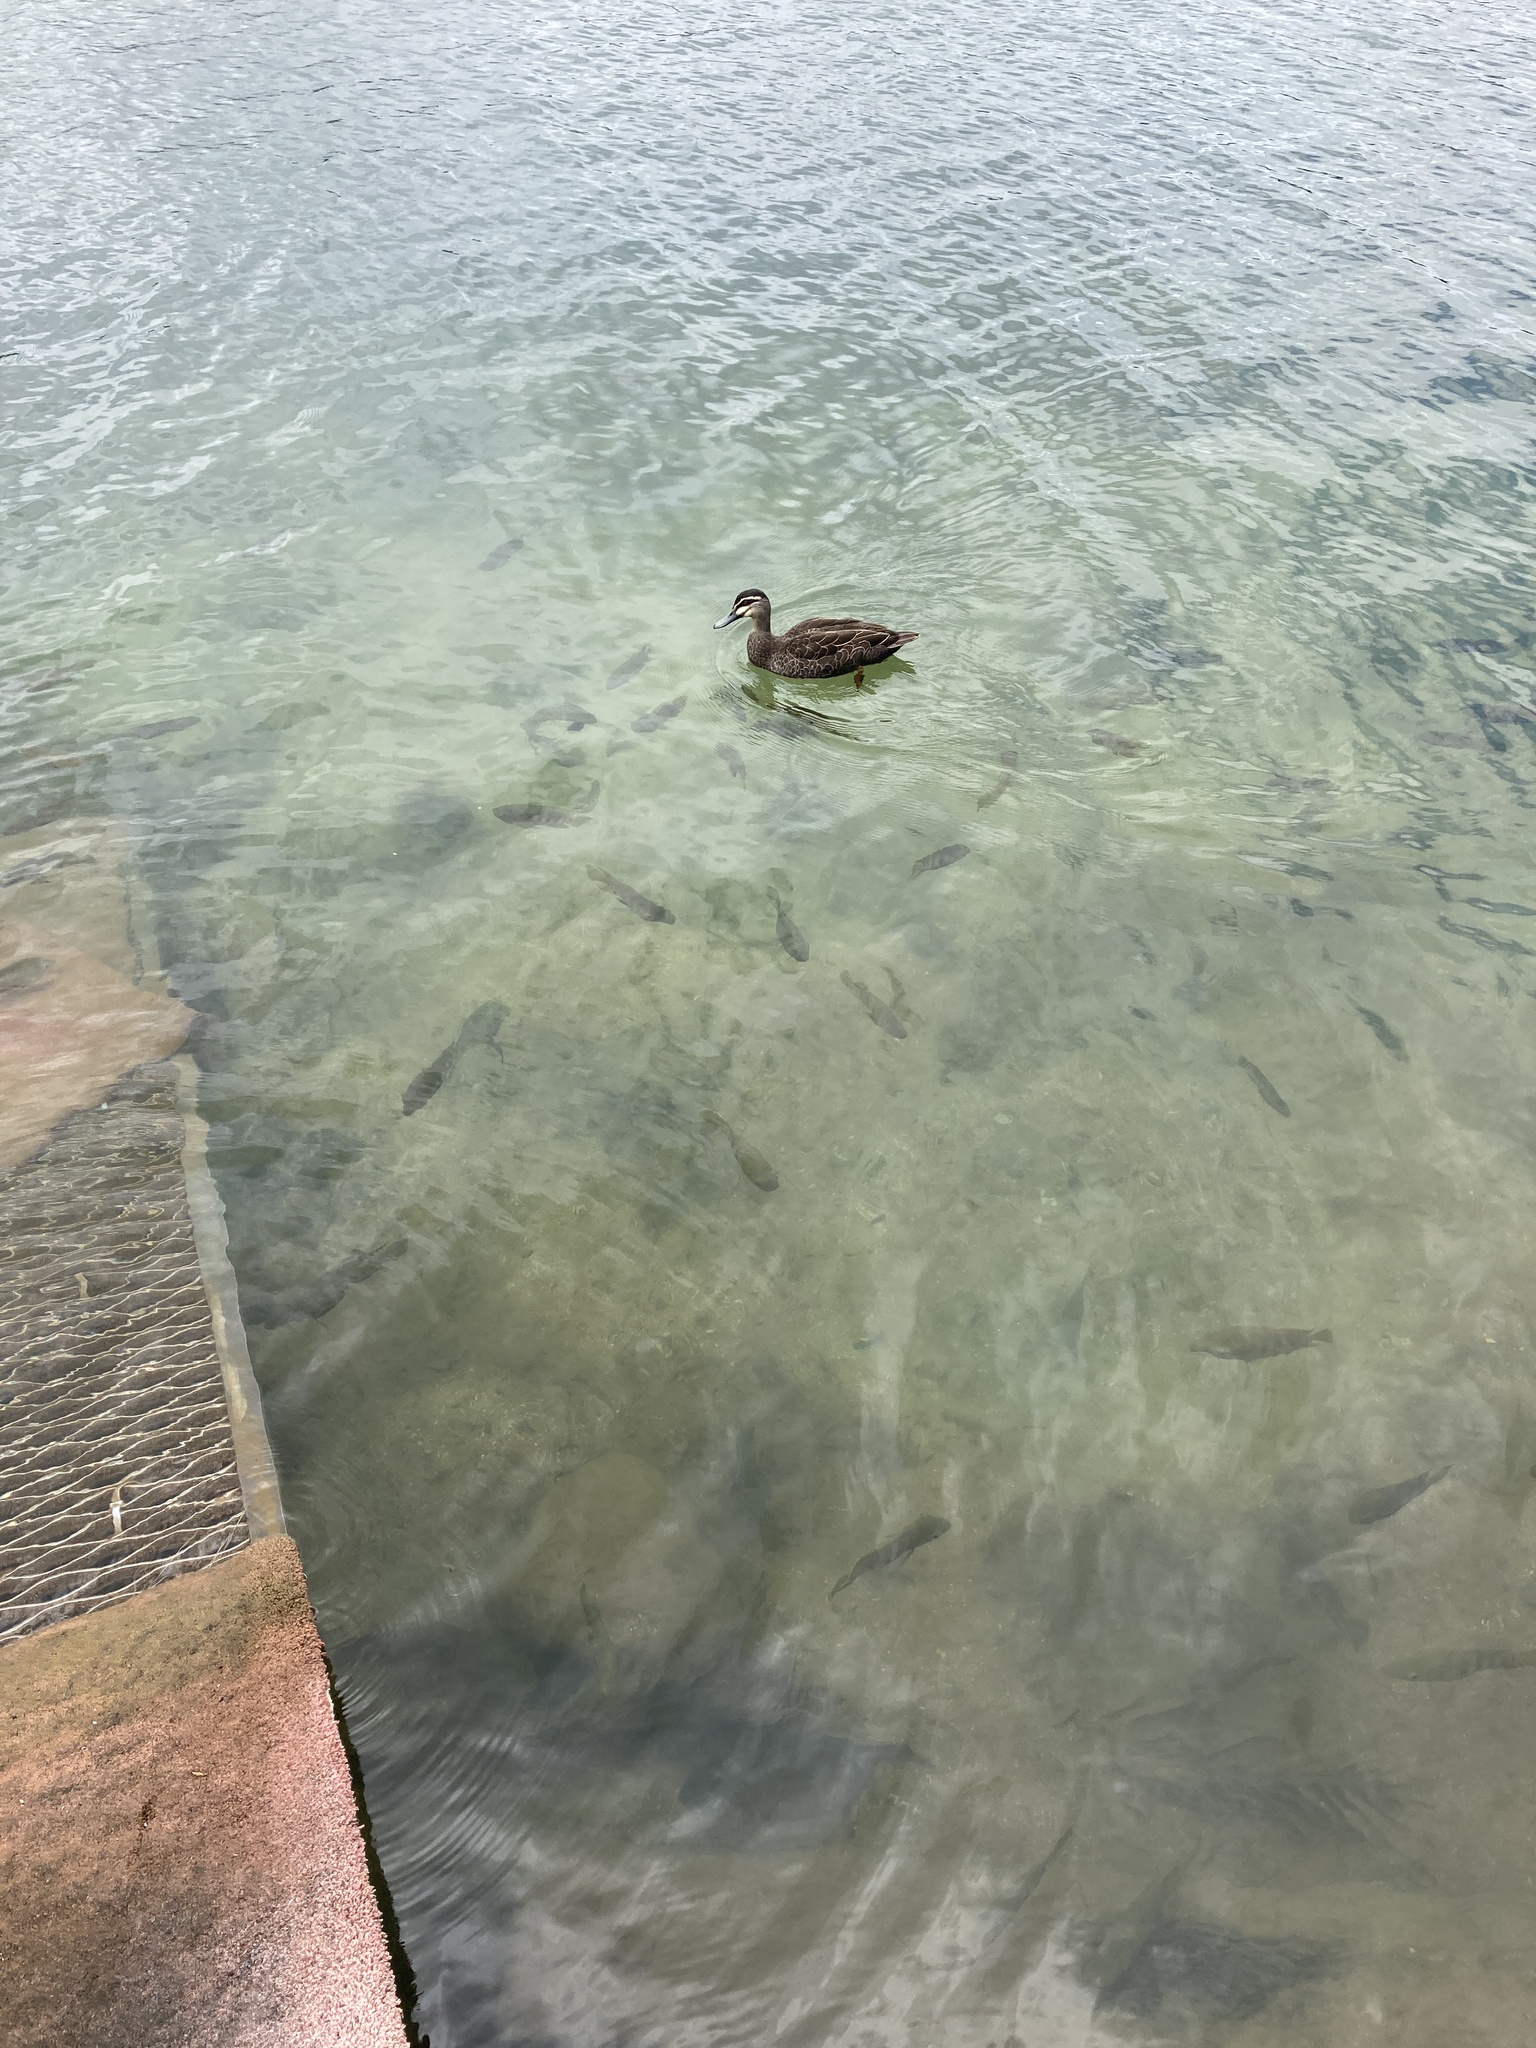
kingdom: Animalia
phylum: Chordata
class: Aves
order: Anseriformes
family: Anatidae
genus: Anas
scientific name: Anas superciliosa
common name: Pacific black duck
